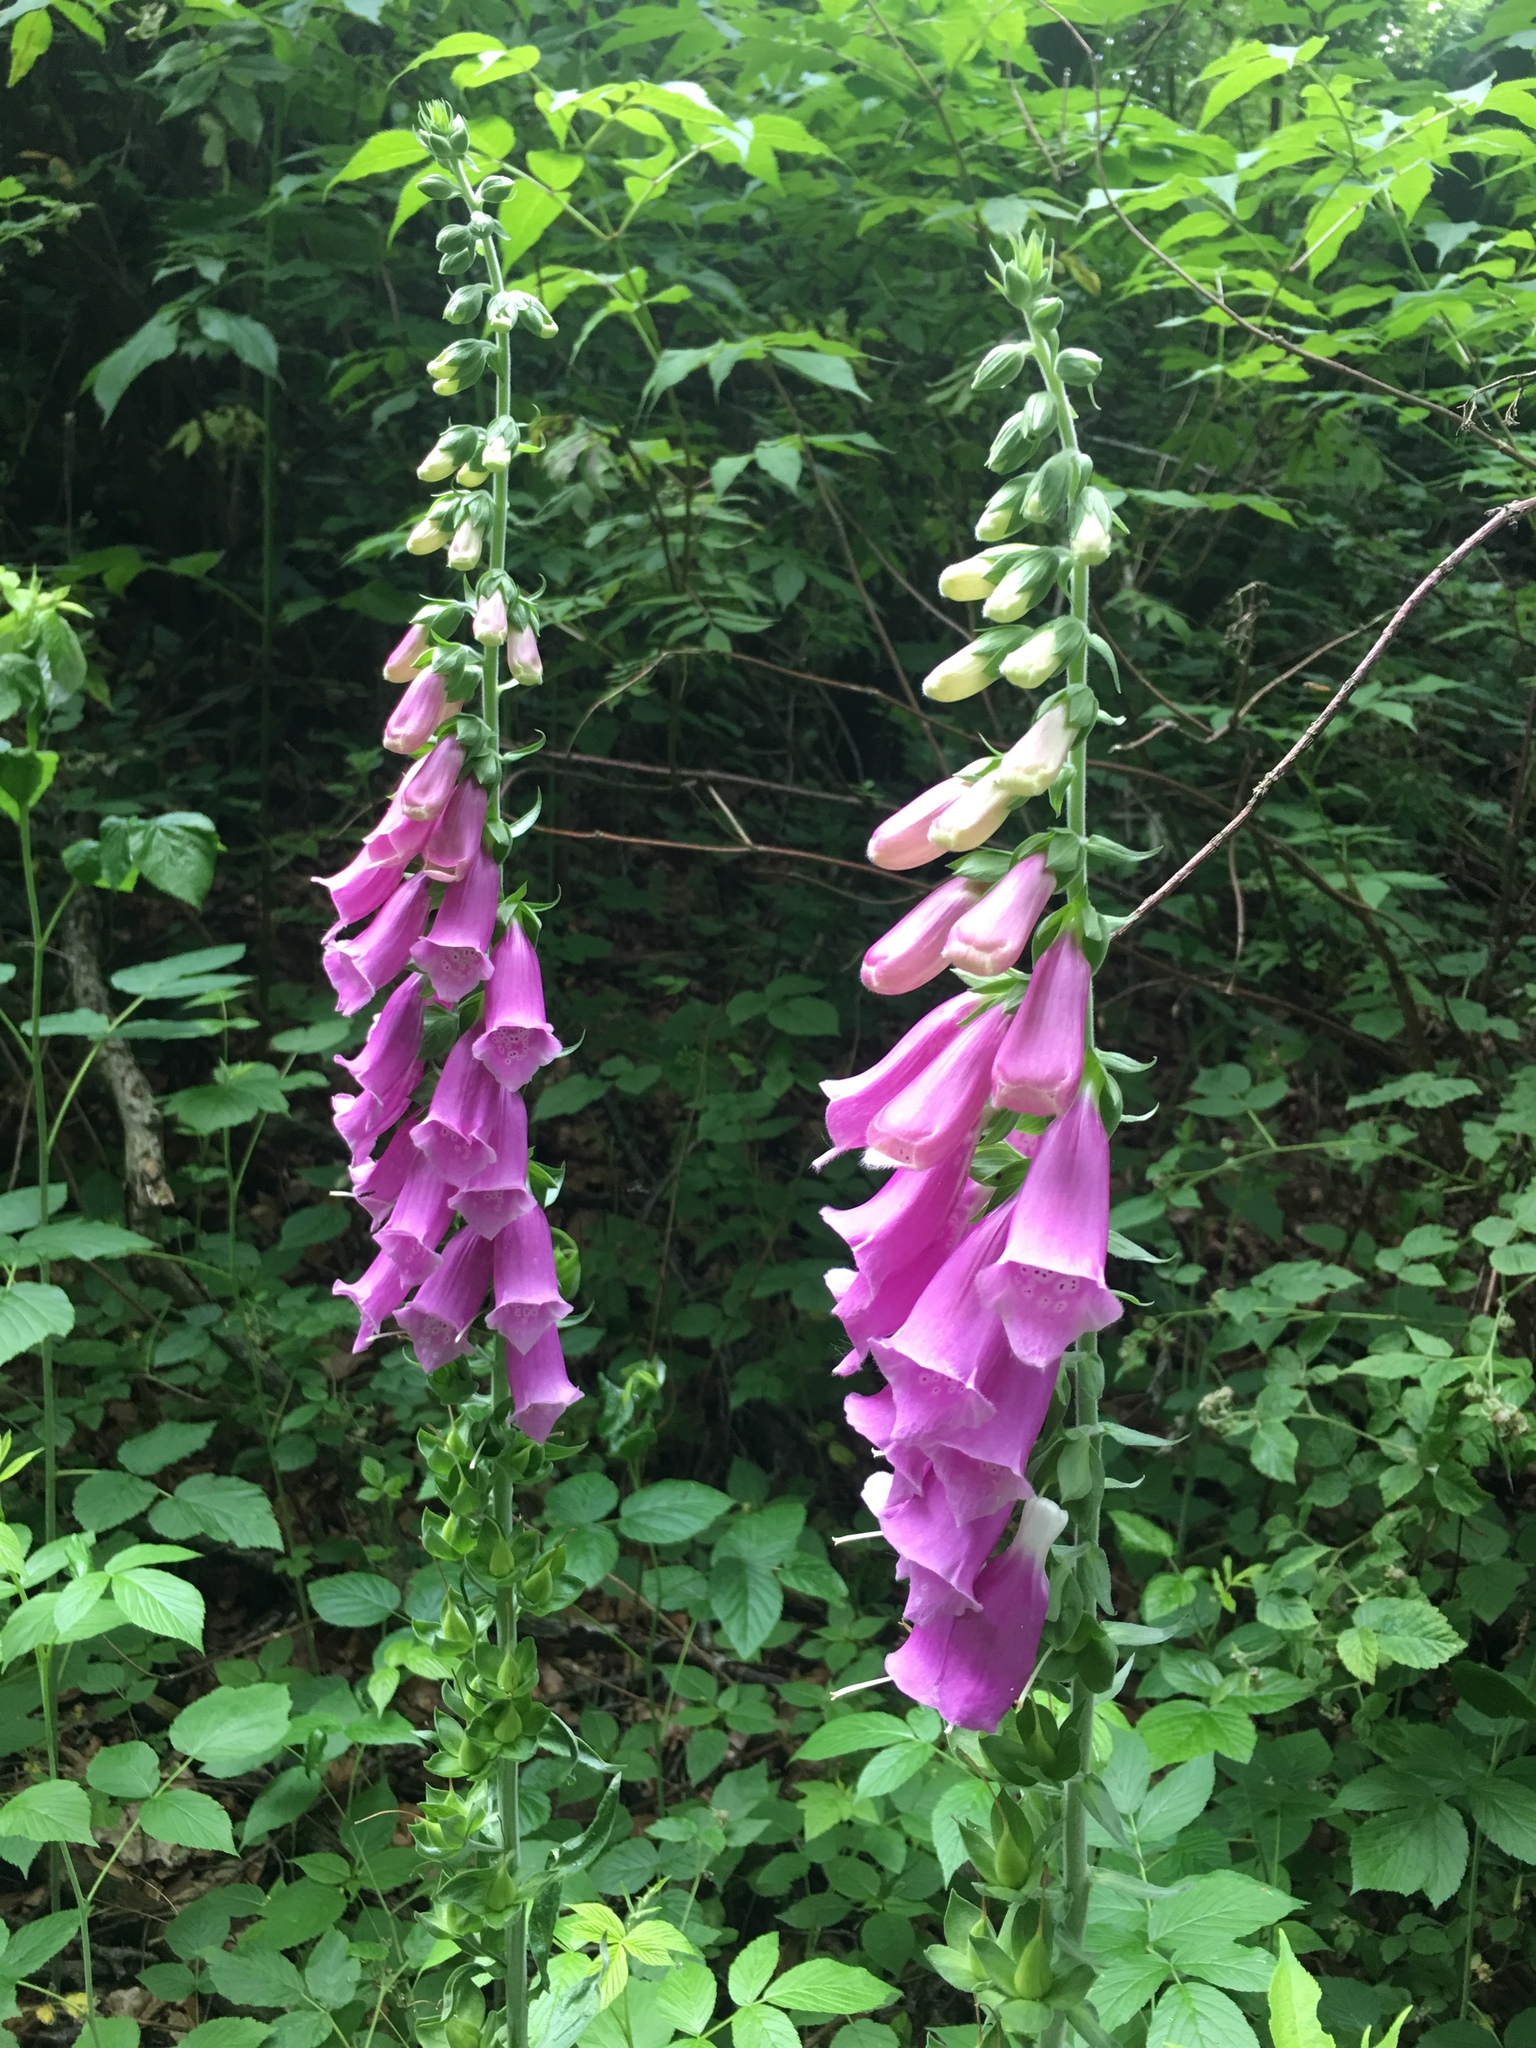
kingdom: Plantae
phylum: Tracheophyta
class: Magnoliopsida
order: Lamiales
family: Plantaginaceae
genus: Digitalis
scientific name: Digitalis purpurea
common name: Foxglove
